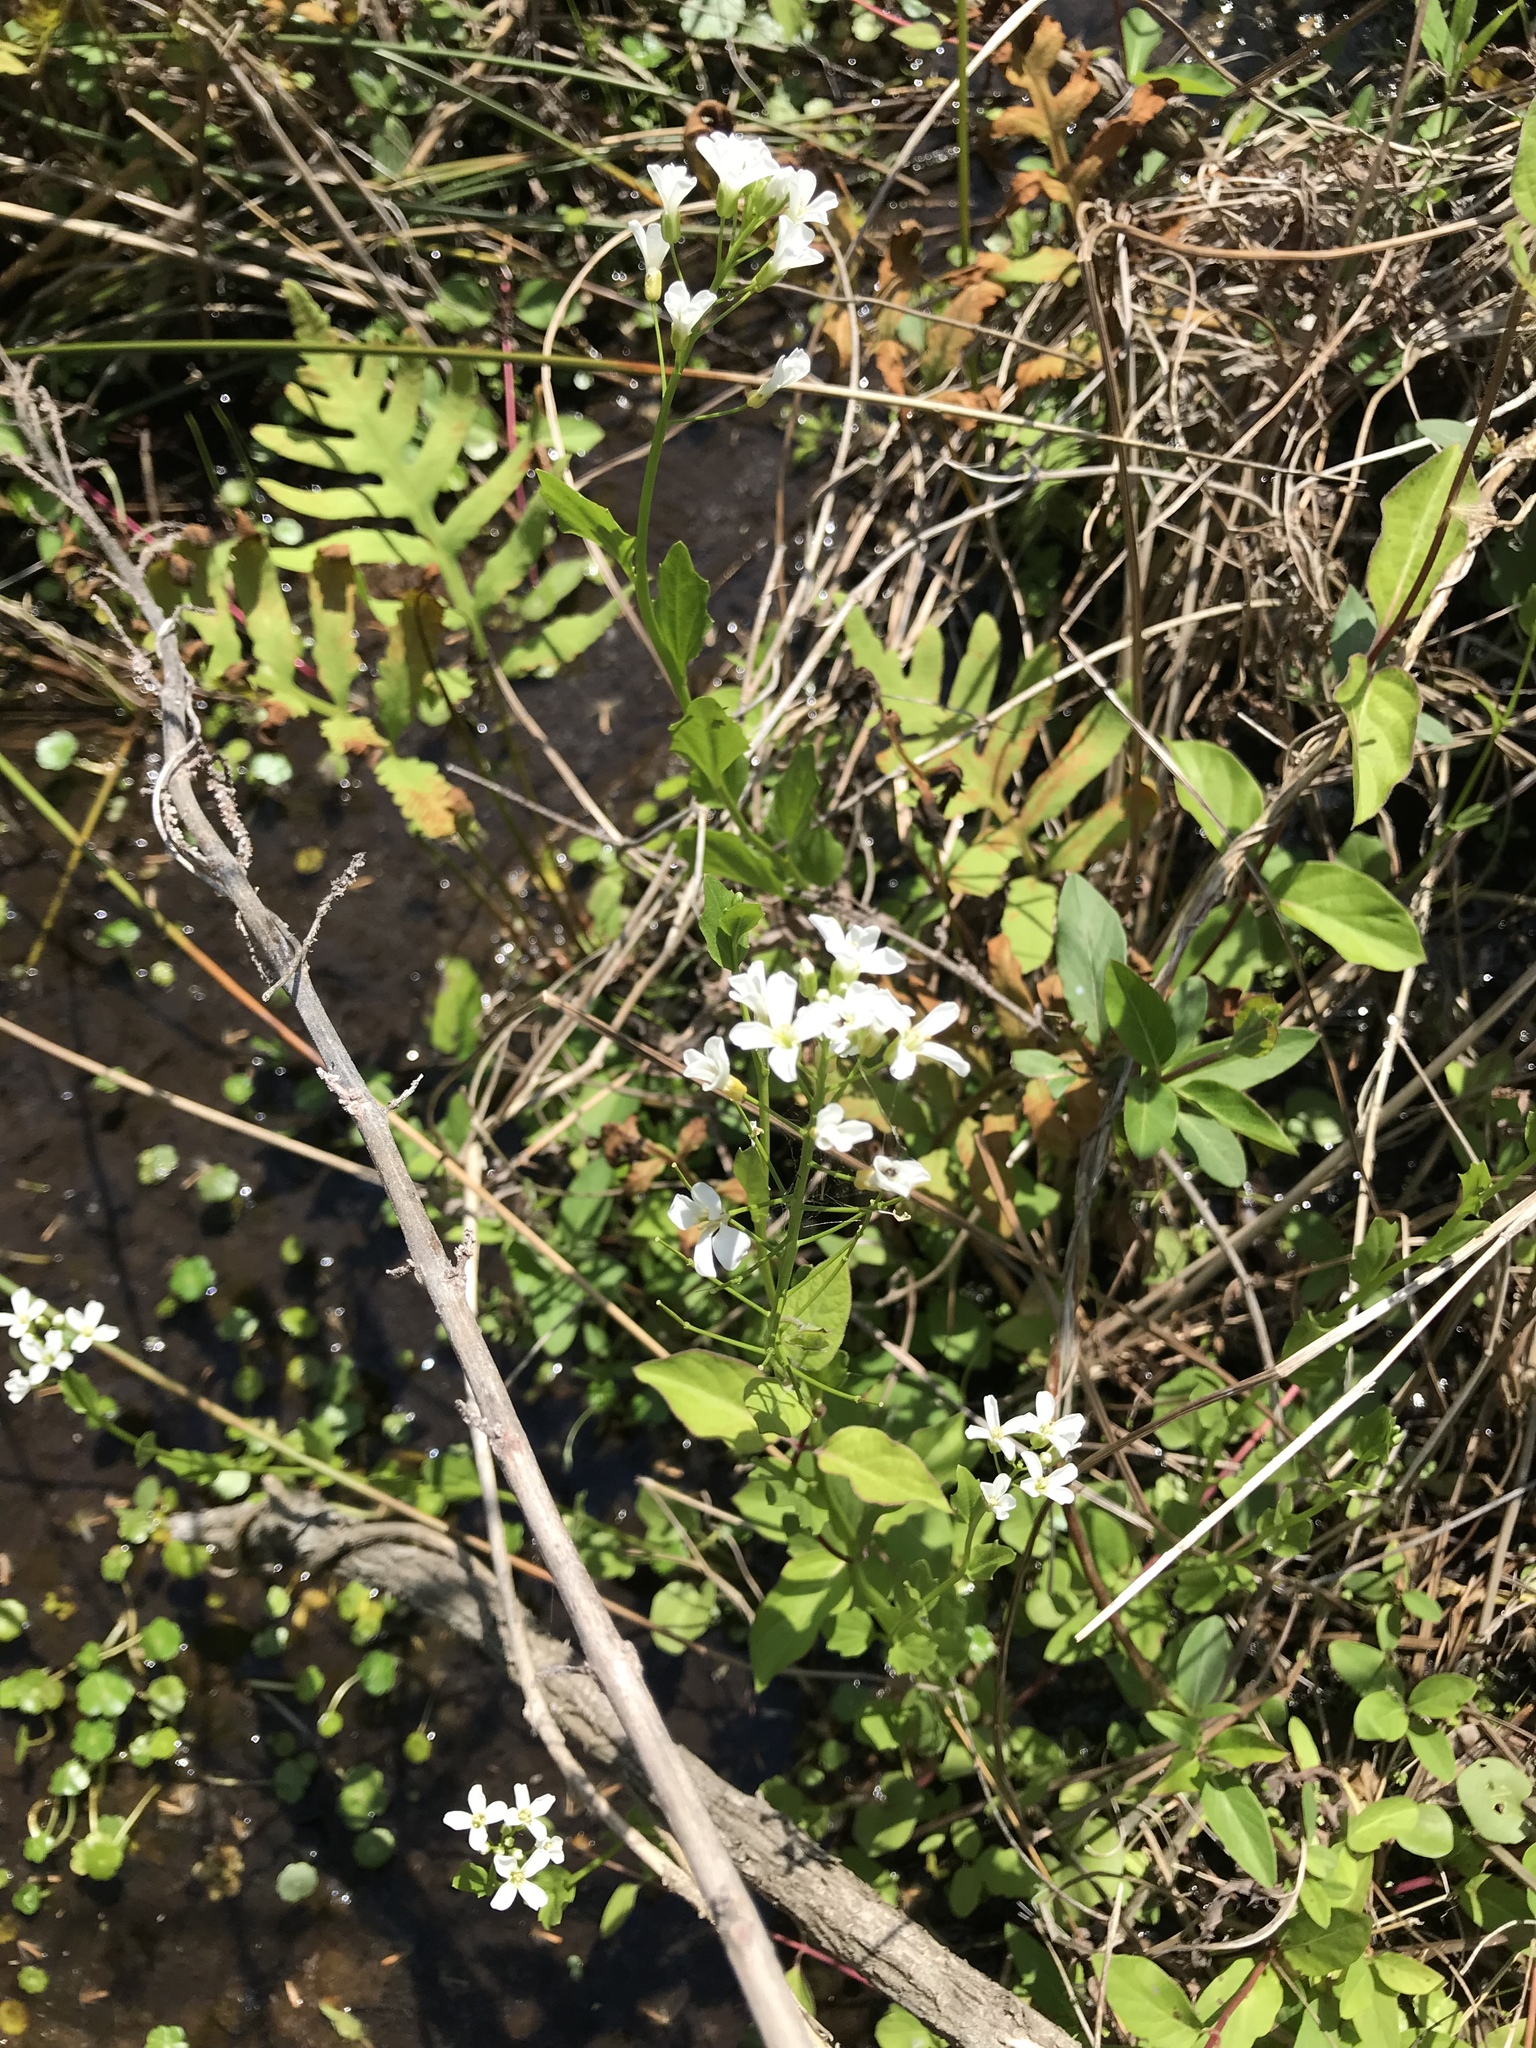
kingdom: Plantae
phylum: Tracheophyta
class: Magnoliopsida
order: Brassicales
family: Brassicaceae
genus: Cardamine
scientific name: Cardamine bulbosa
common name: Spring cress
